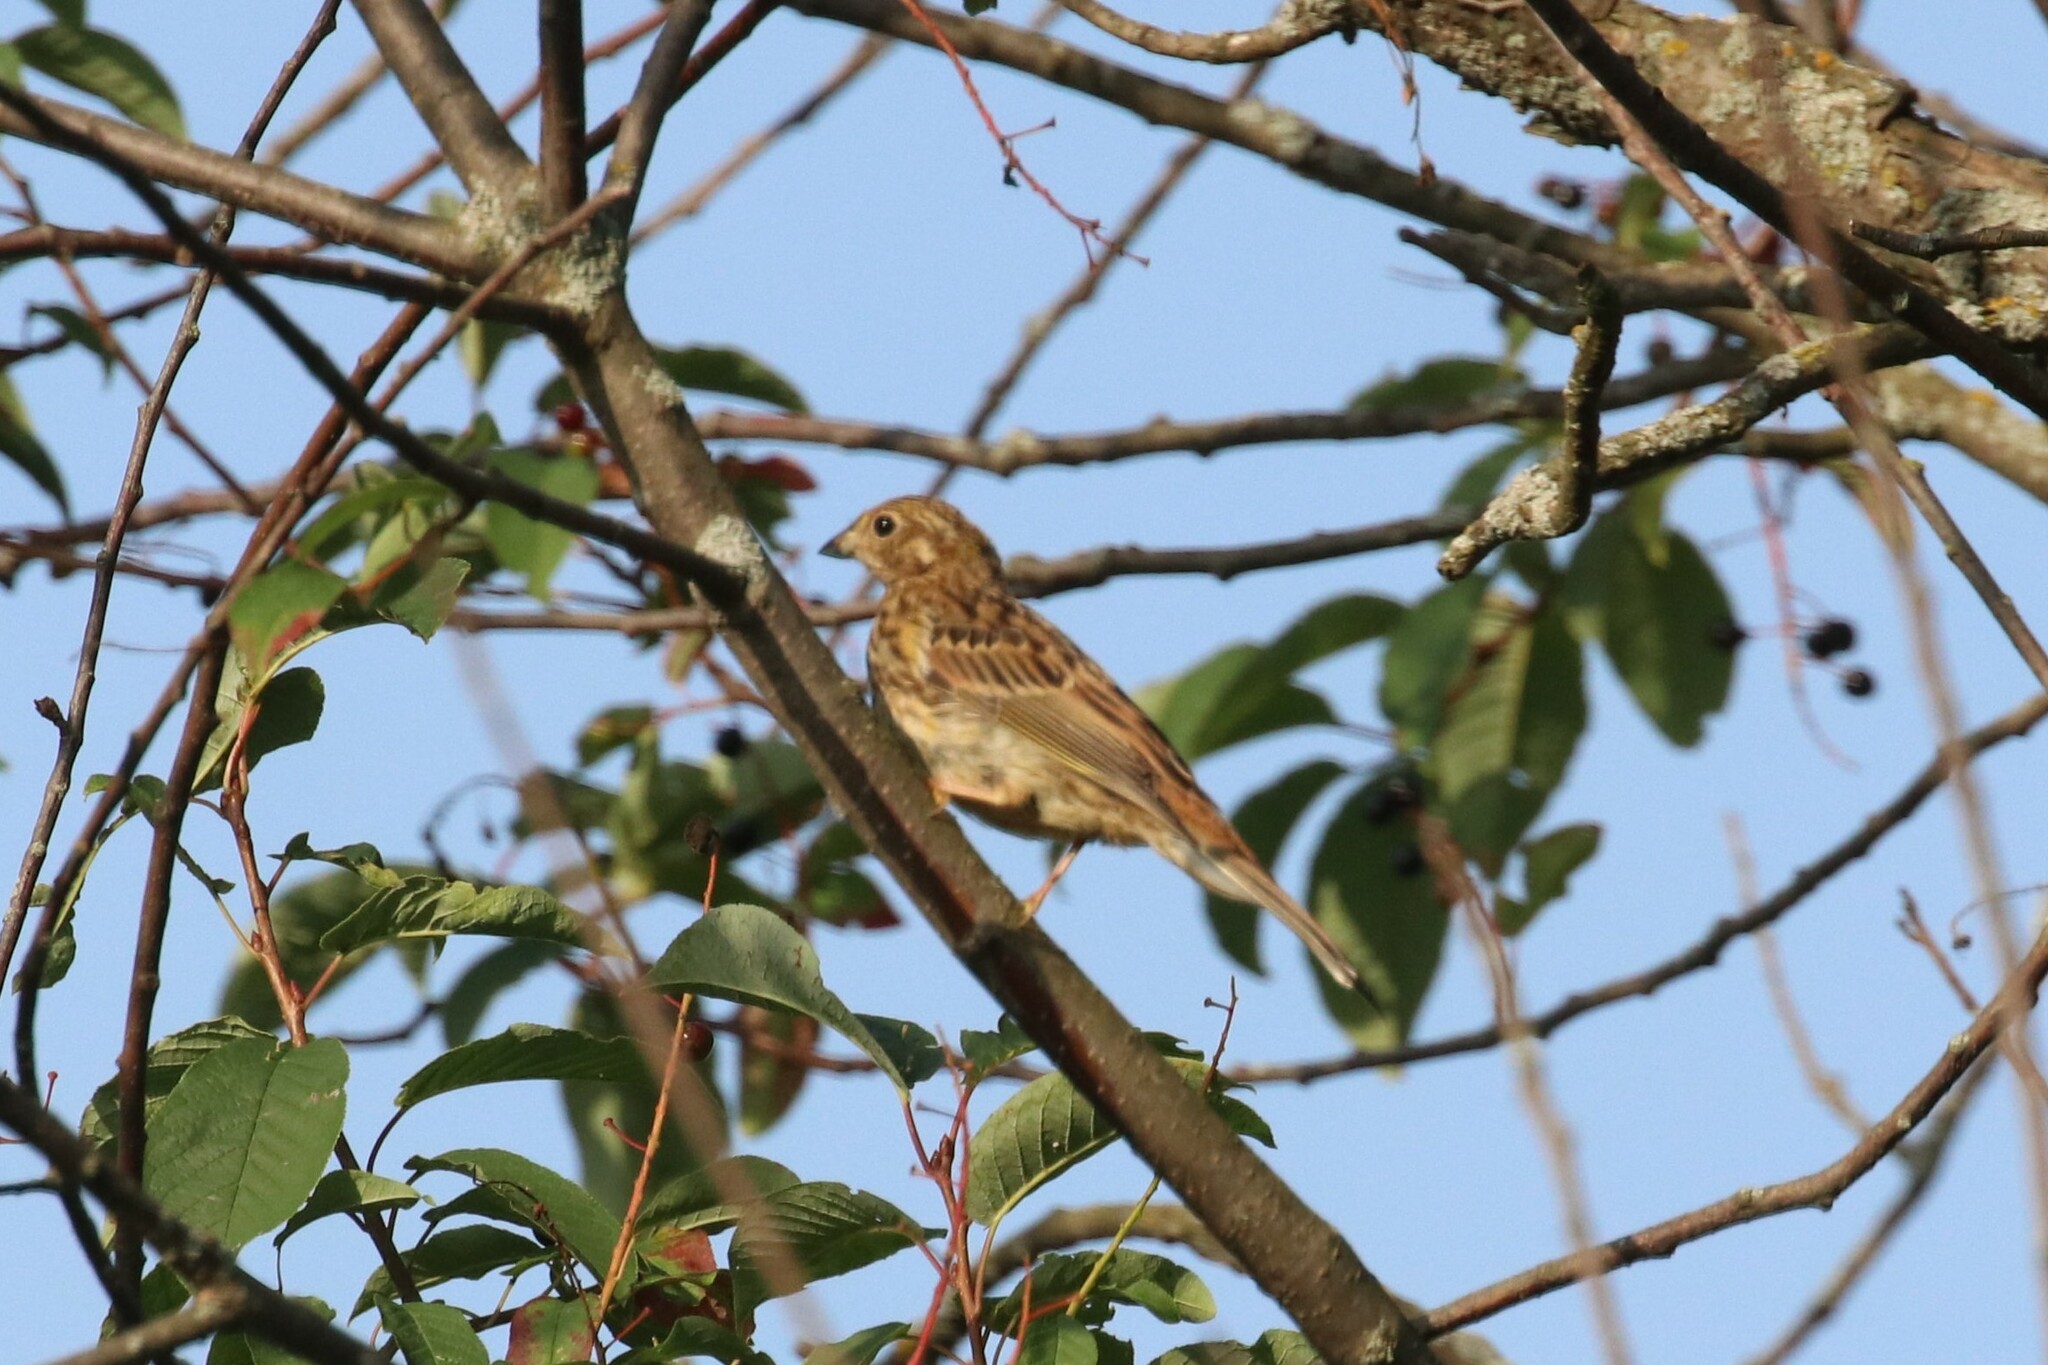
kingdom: Animalia
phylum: Chordata
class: Aves
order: Passeriformes
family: Emberizidae
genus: Emberiza
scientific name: Emberiza citrinella
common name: Yellowhammer
